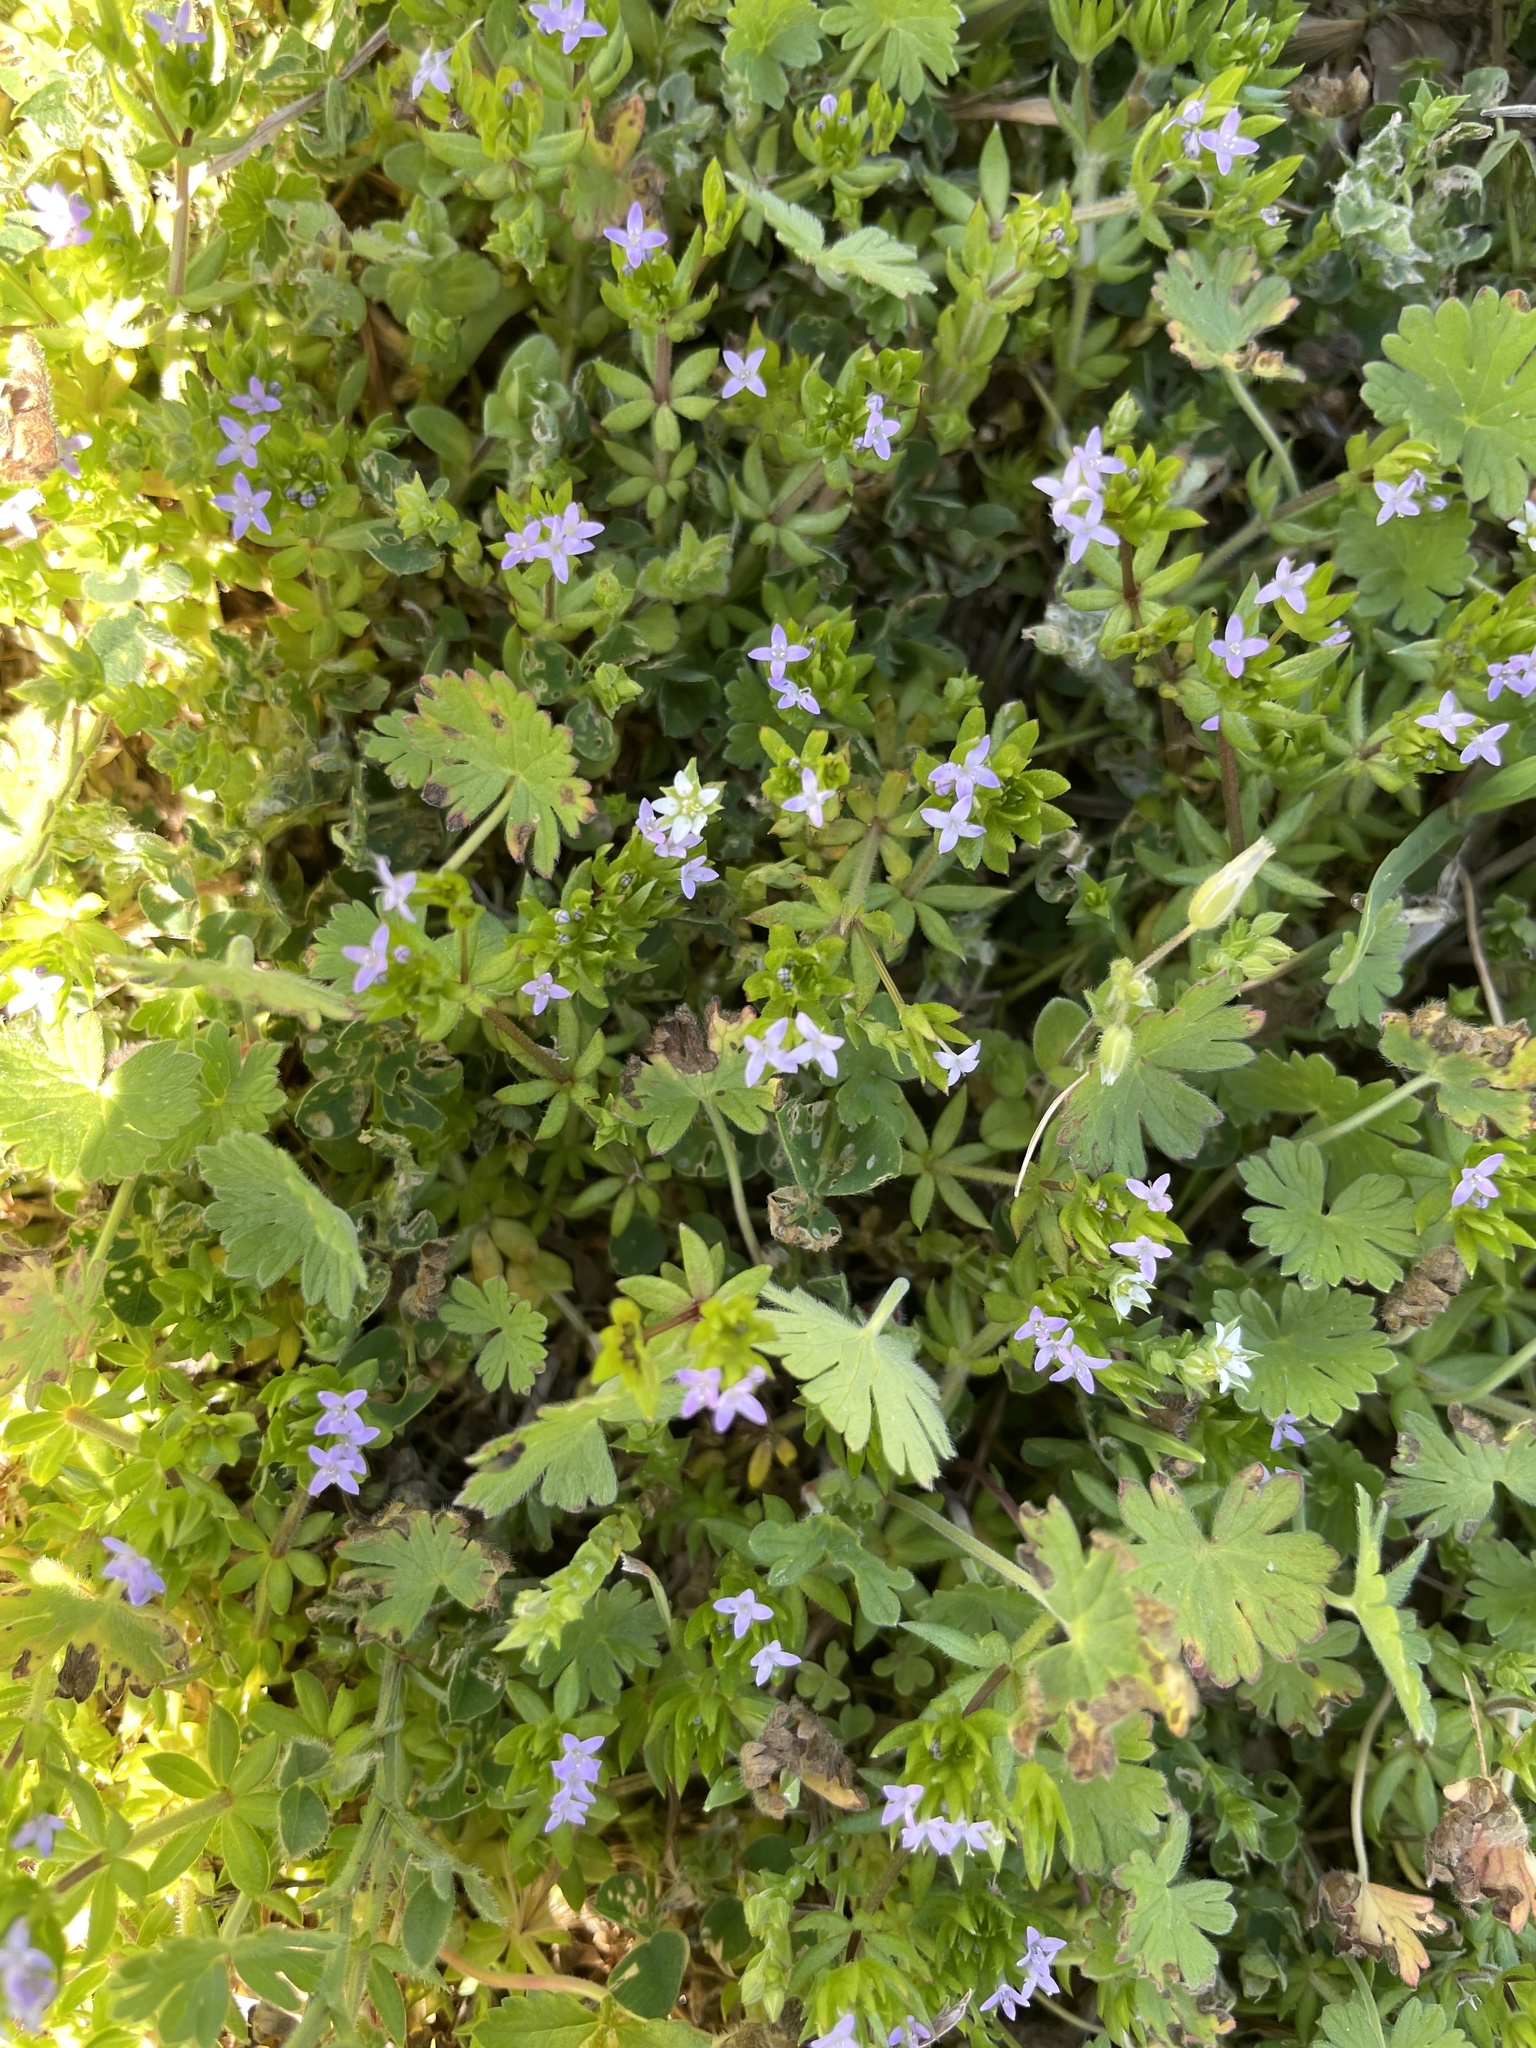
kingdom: Plantae
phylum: Tracheophyta
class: Magnoliopsida
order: Gentianales
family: Rubiaceae
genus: Sherardia
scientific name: Sherardia arvensis
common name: Field madder
